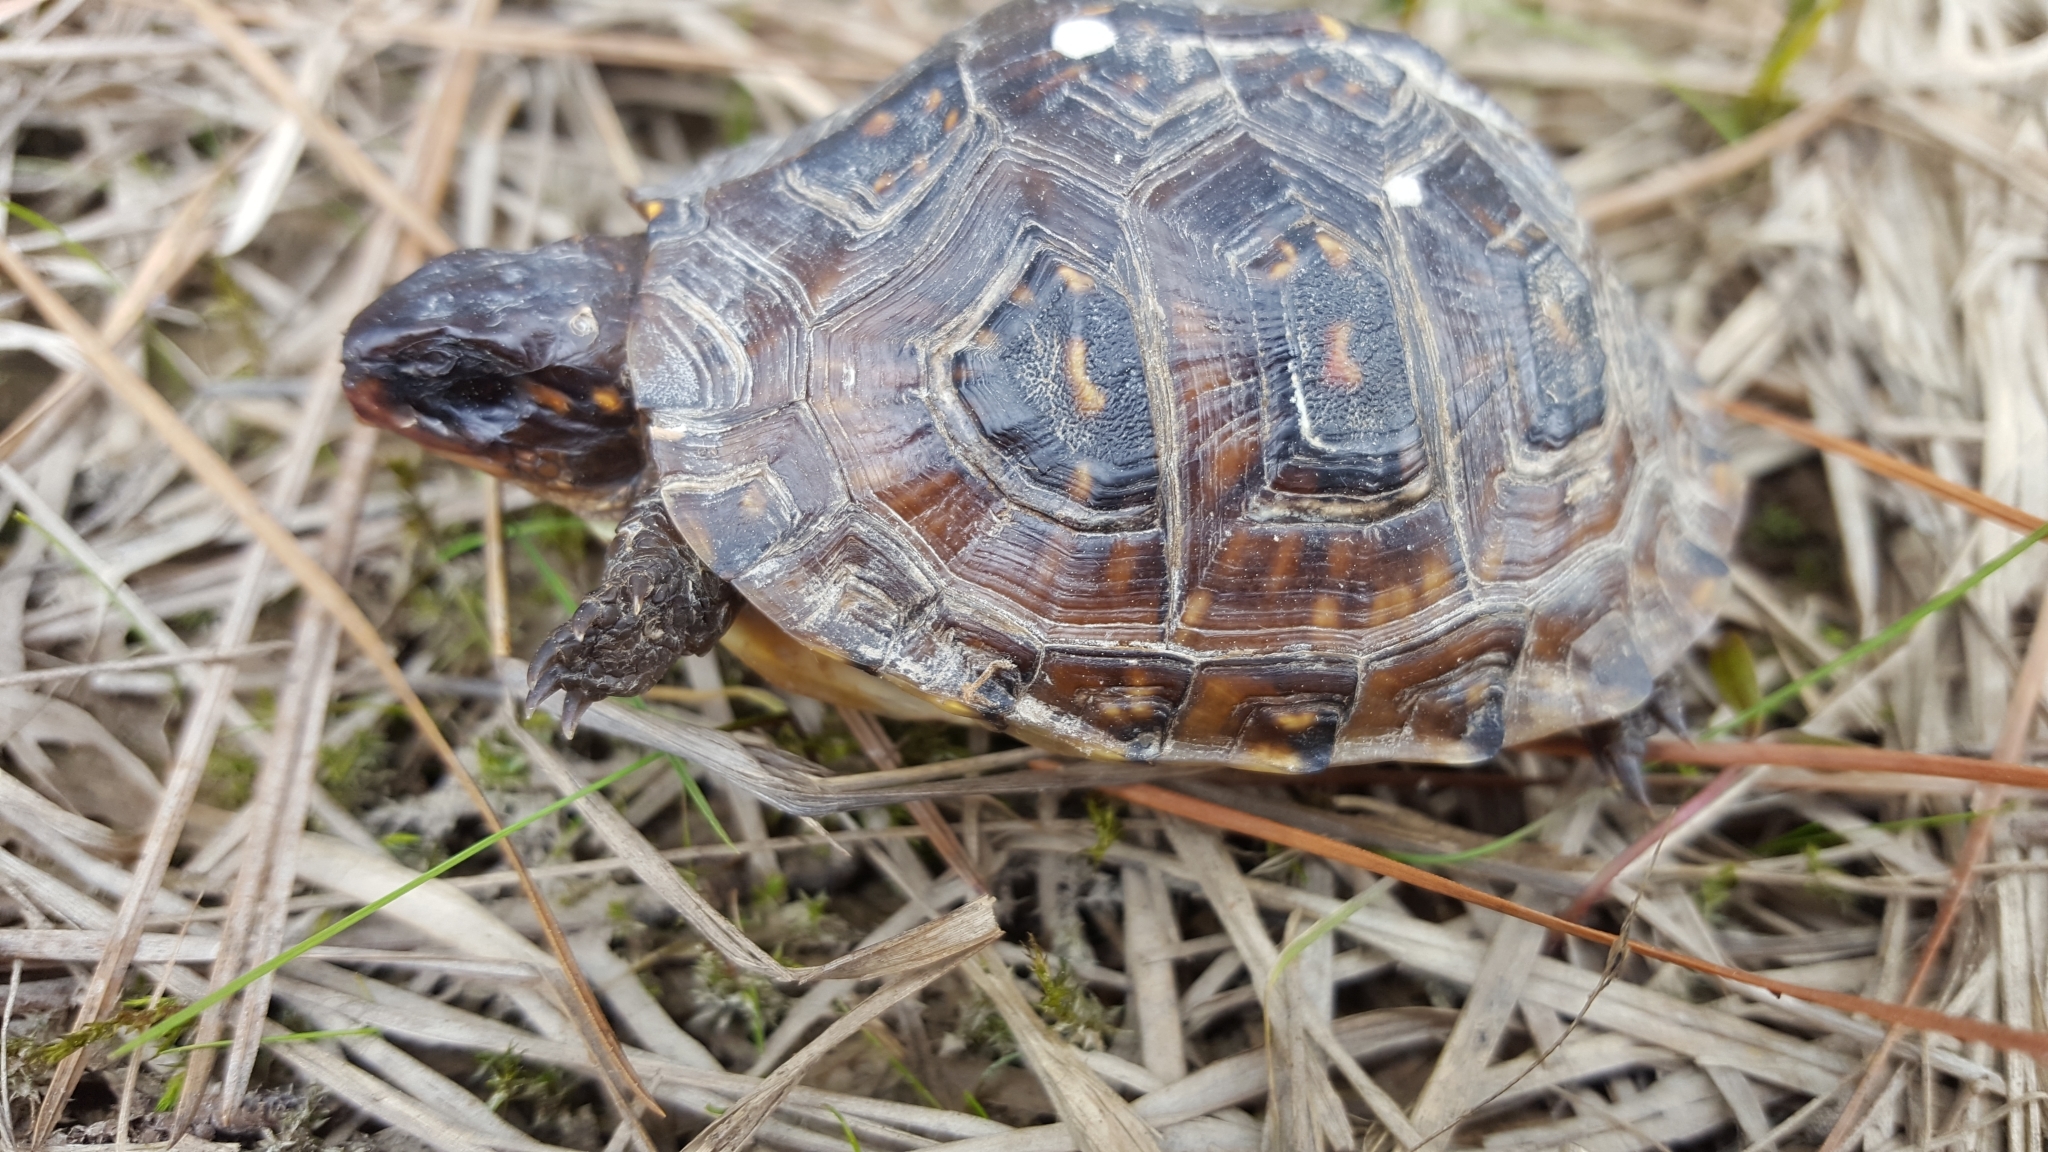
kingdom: Animalia
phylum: Chordata
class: Testudines
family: Emydidae
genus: Terrapene
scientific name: Terrapene carolina
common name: Common box turtle
